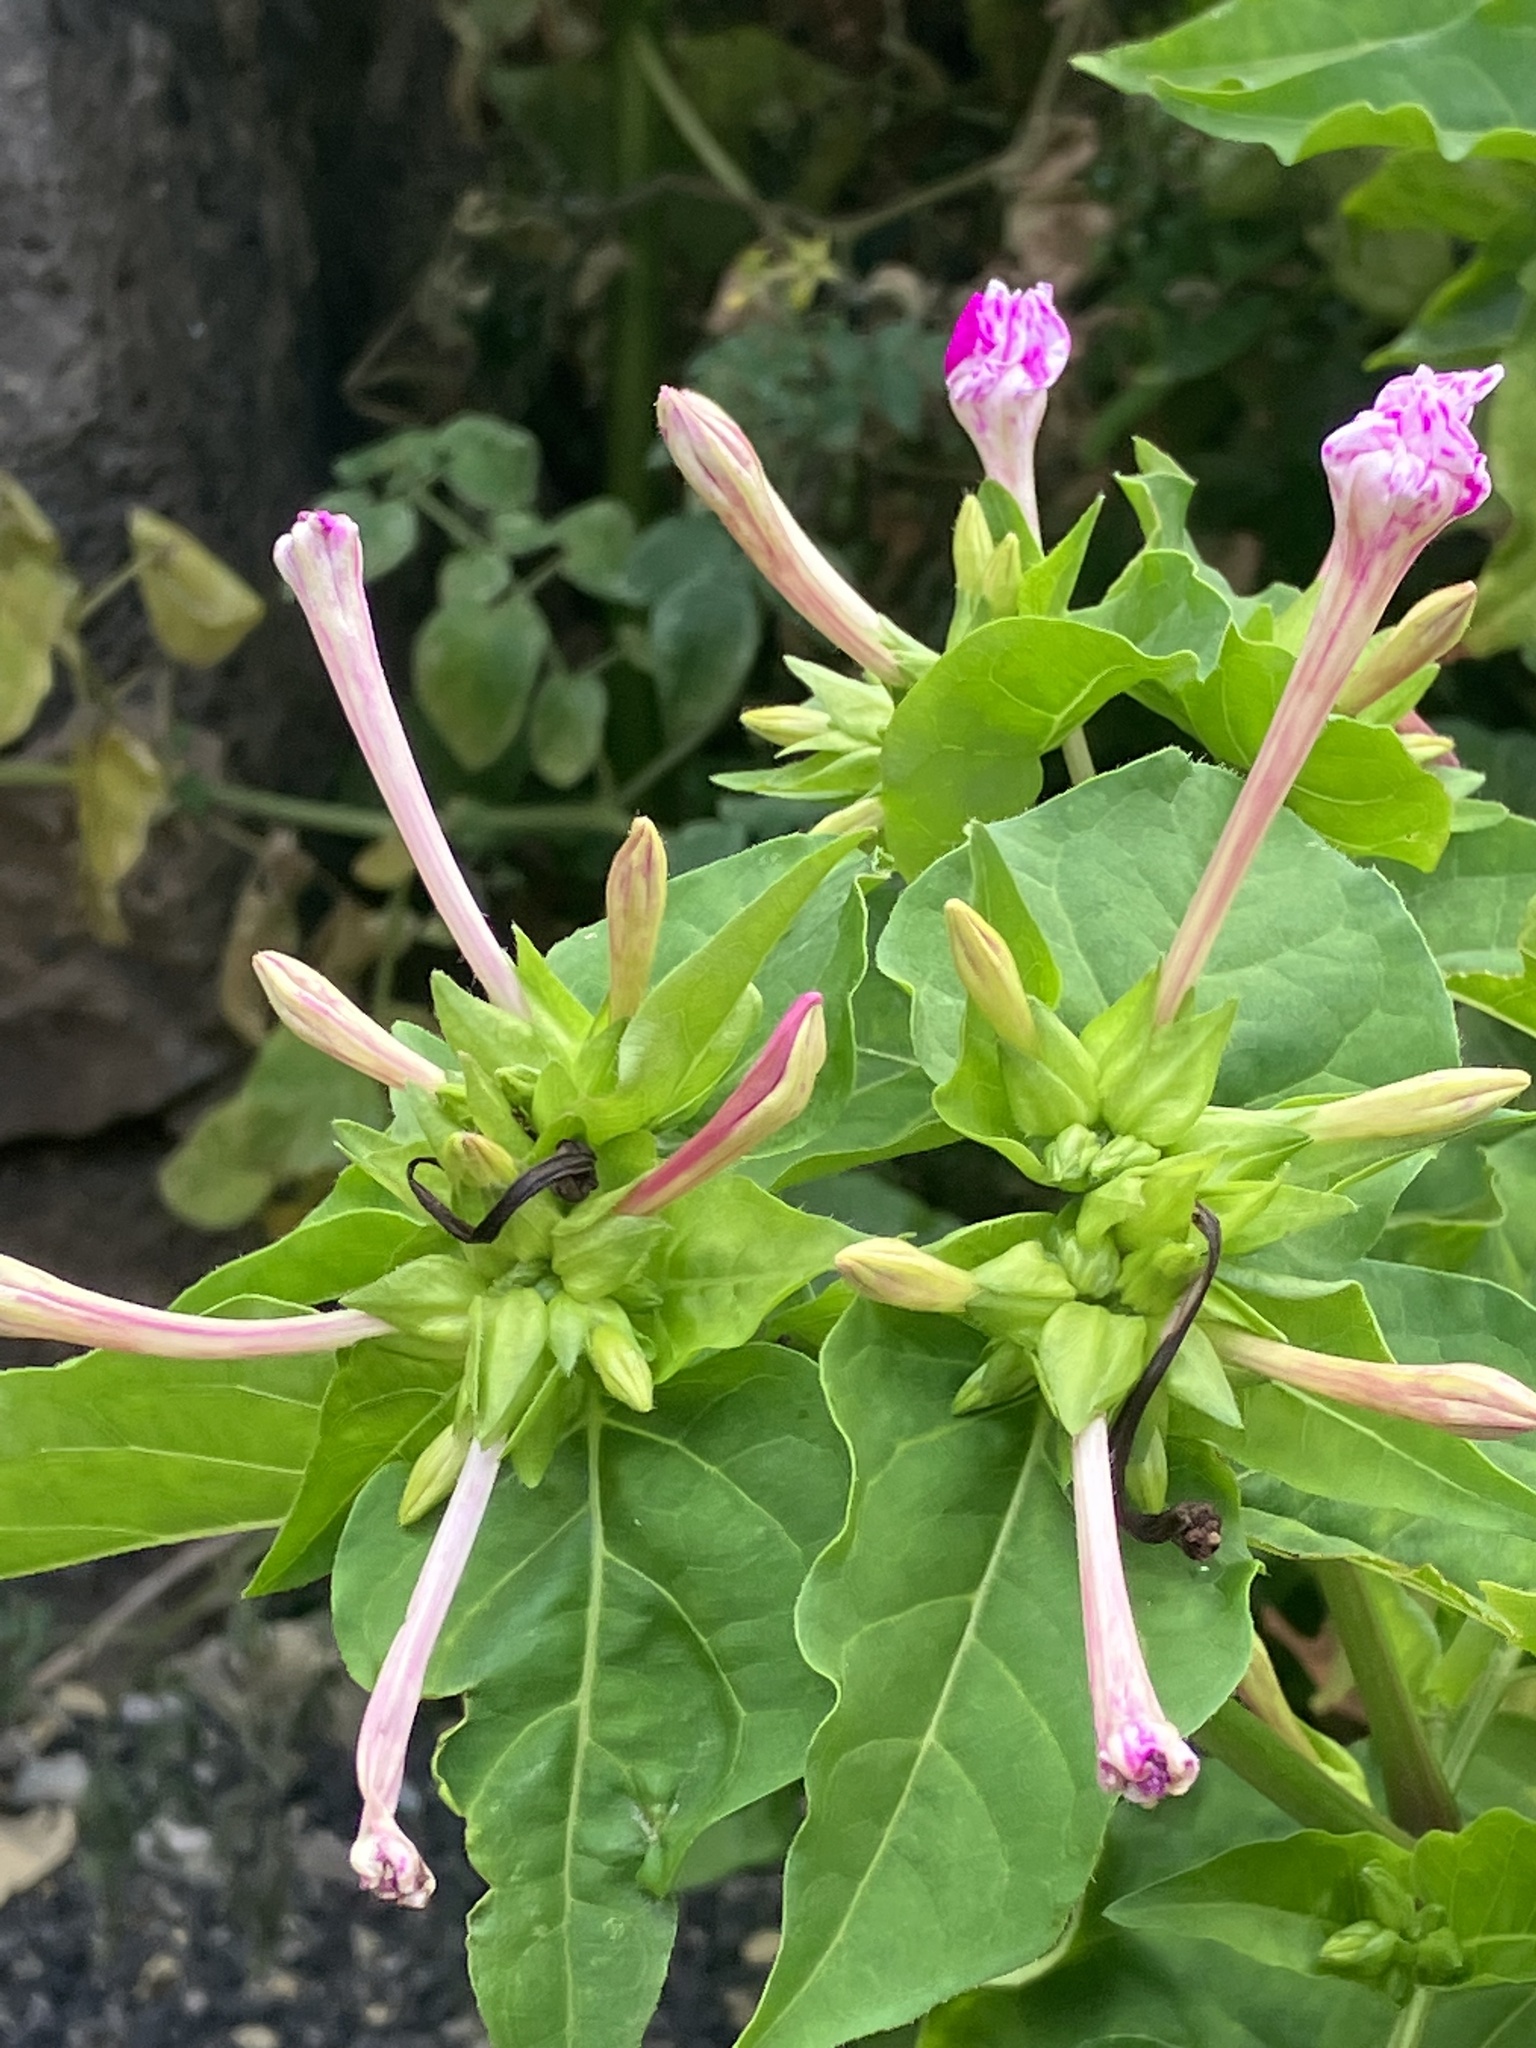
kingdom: Plantae
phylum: Tracheophyta
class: Magnoliopsida
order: Caryophyllales
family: Nyctaginaceae
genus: Mirabilis
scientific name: Mirabilis jalapa
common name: Marvel-of-peru
